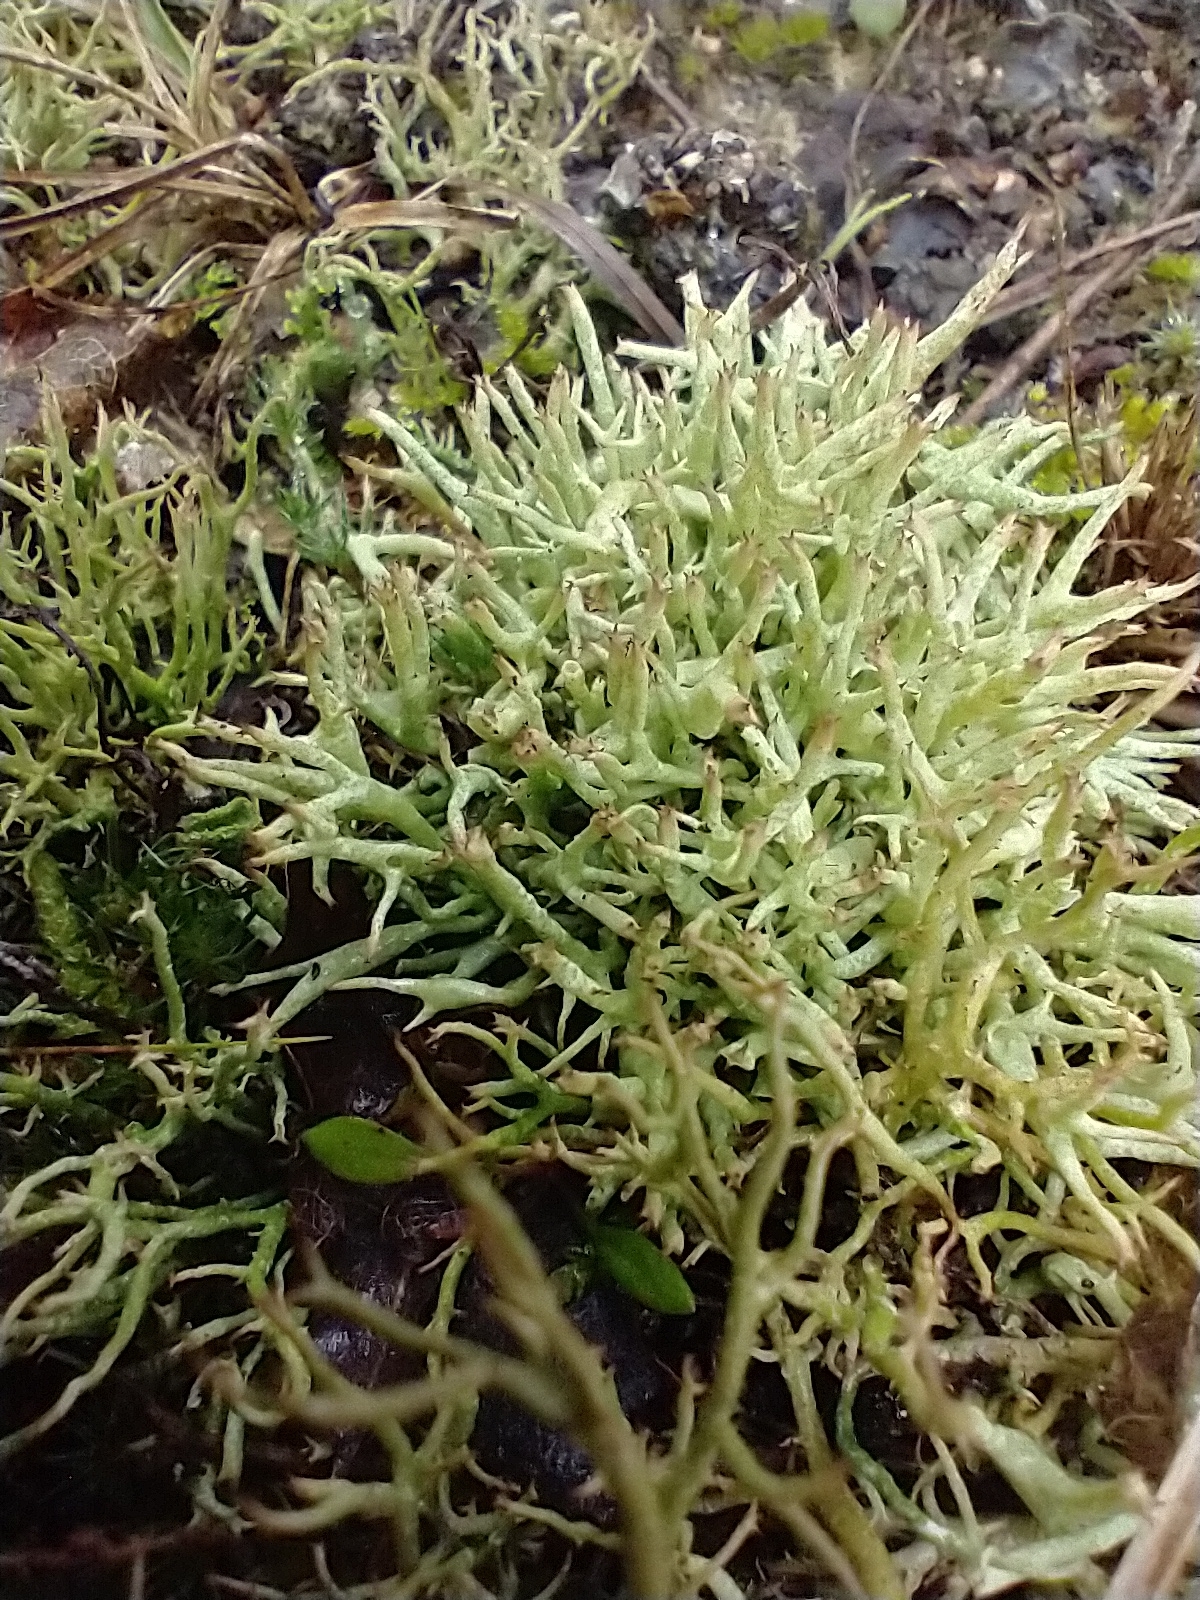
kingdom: Fungi
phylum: Ascomycota
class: Lecanoromycetes
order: Lecanorales
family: Cladoniaceae
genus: Cladonia
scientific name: Cladonia uncialis
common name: Thorn lichen
